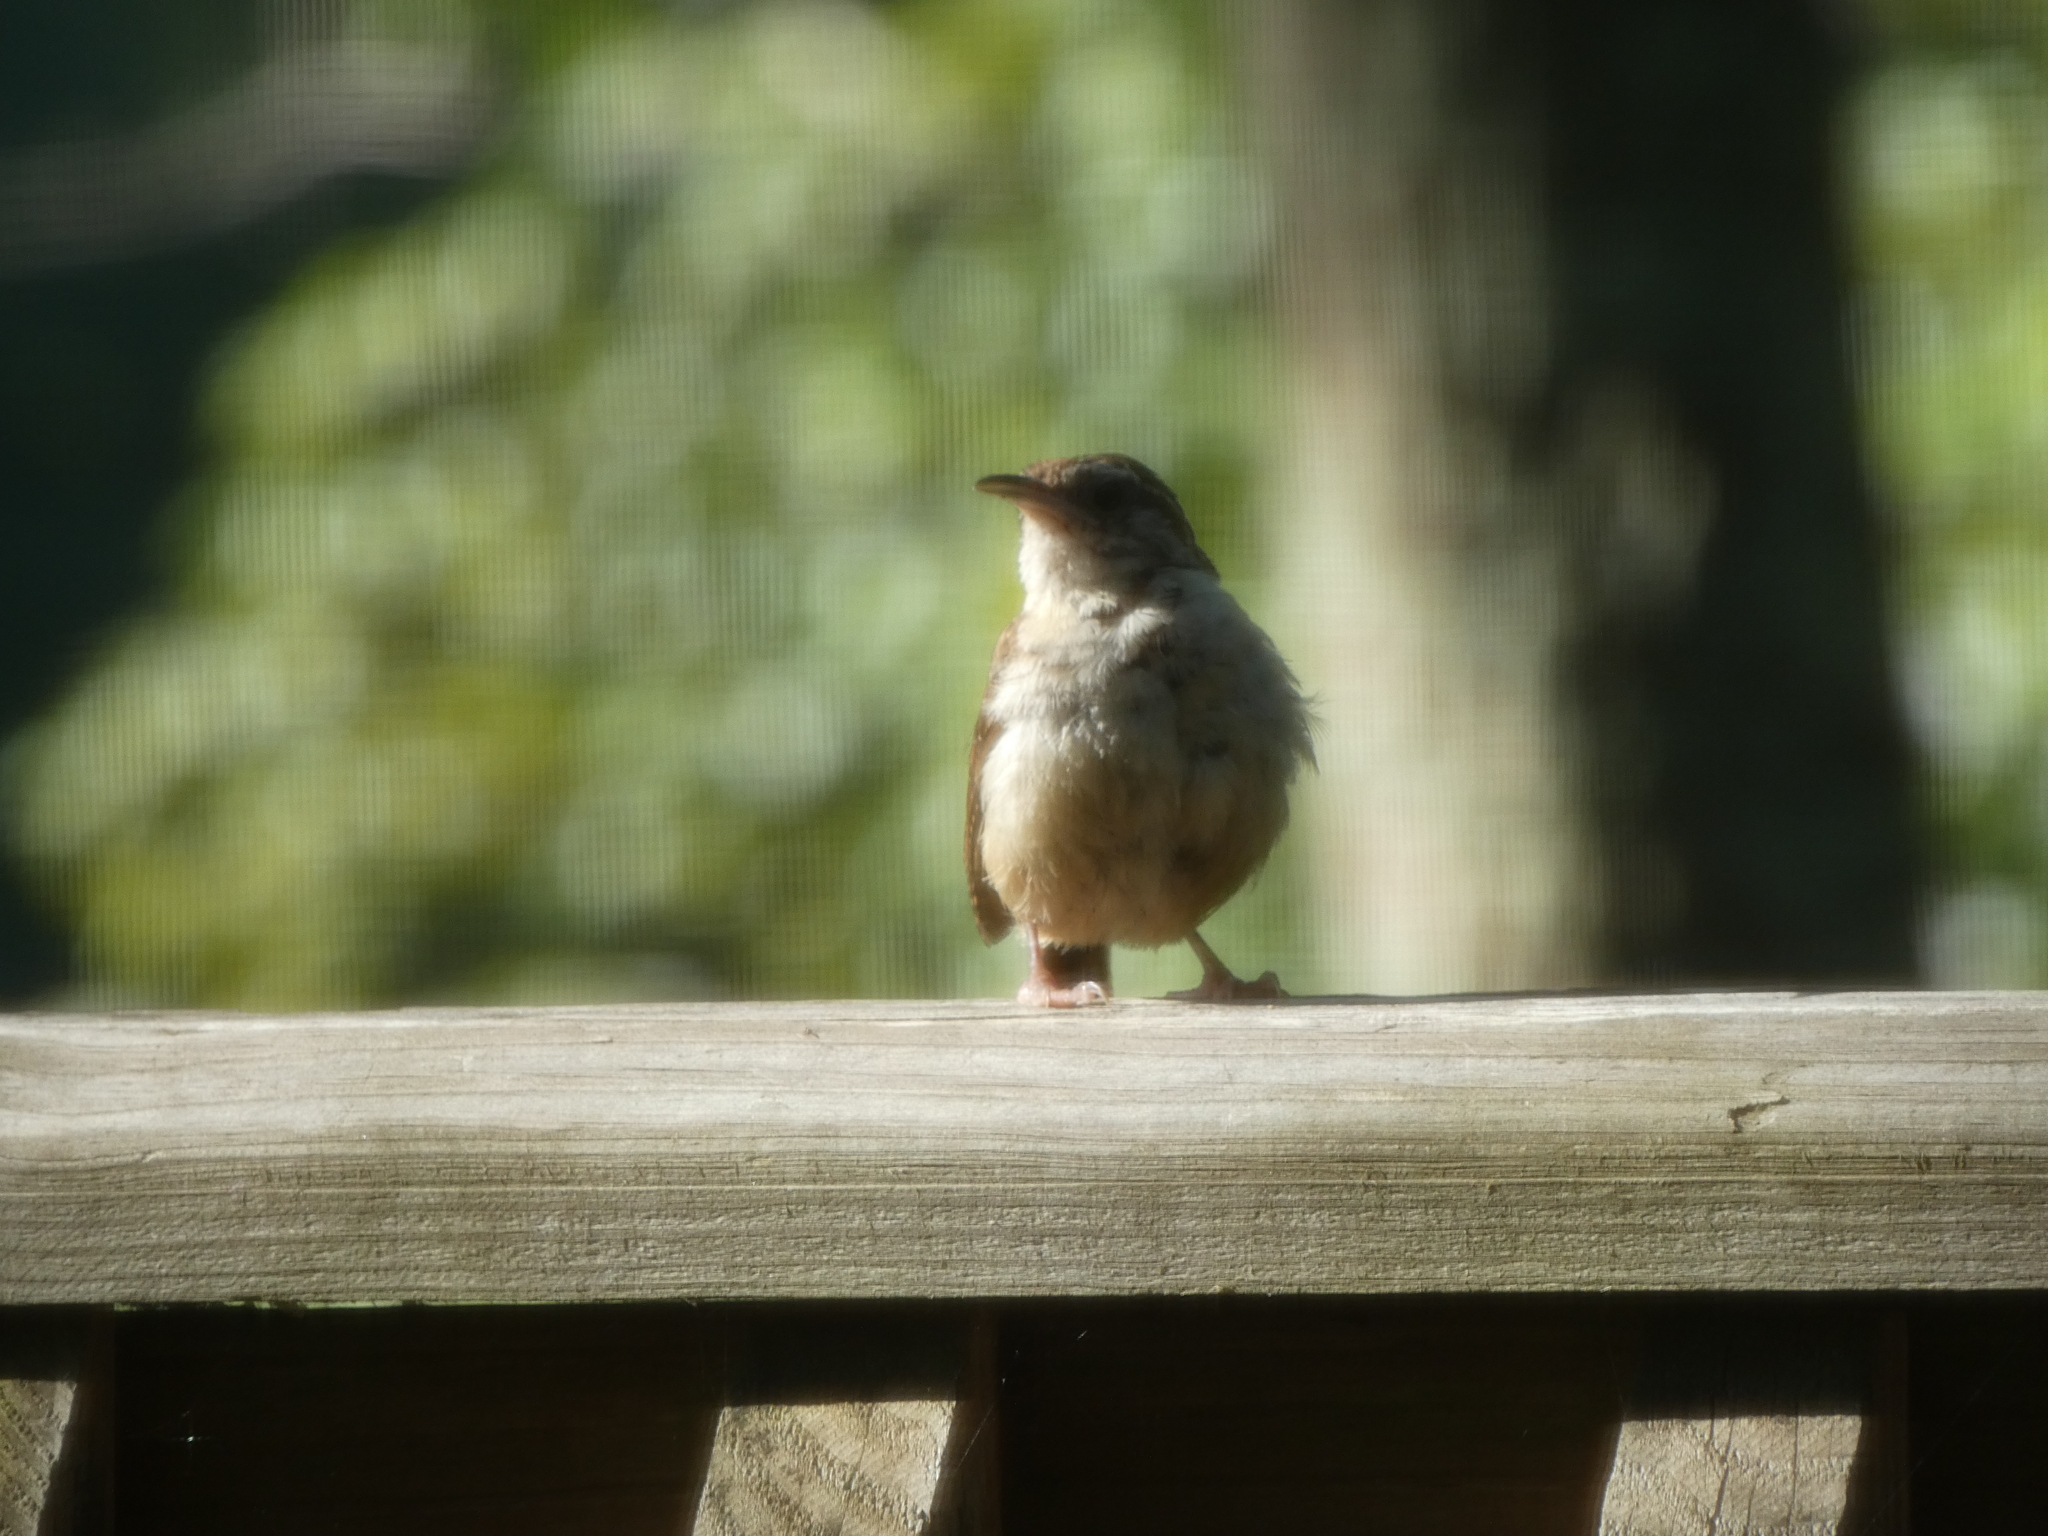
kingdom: Animalia
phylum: Chordata
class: Aves
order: Passeriformes
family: Troglodytidae
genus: Thryothorus
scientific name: Thryothorus ludovicianus
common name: Carolina wren
